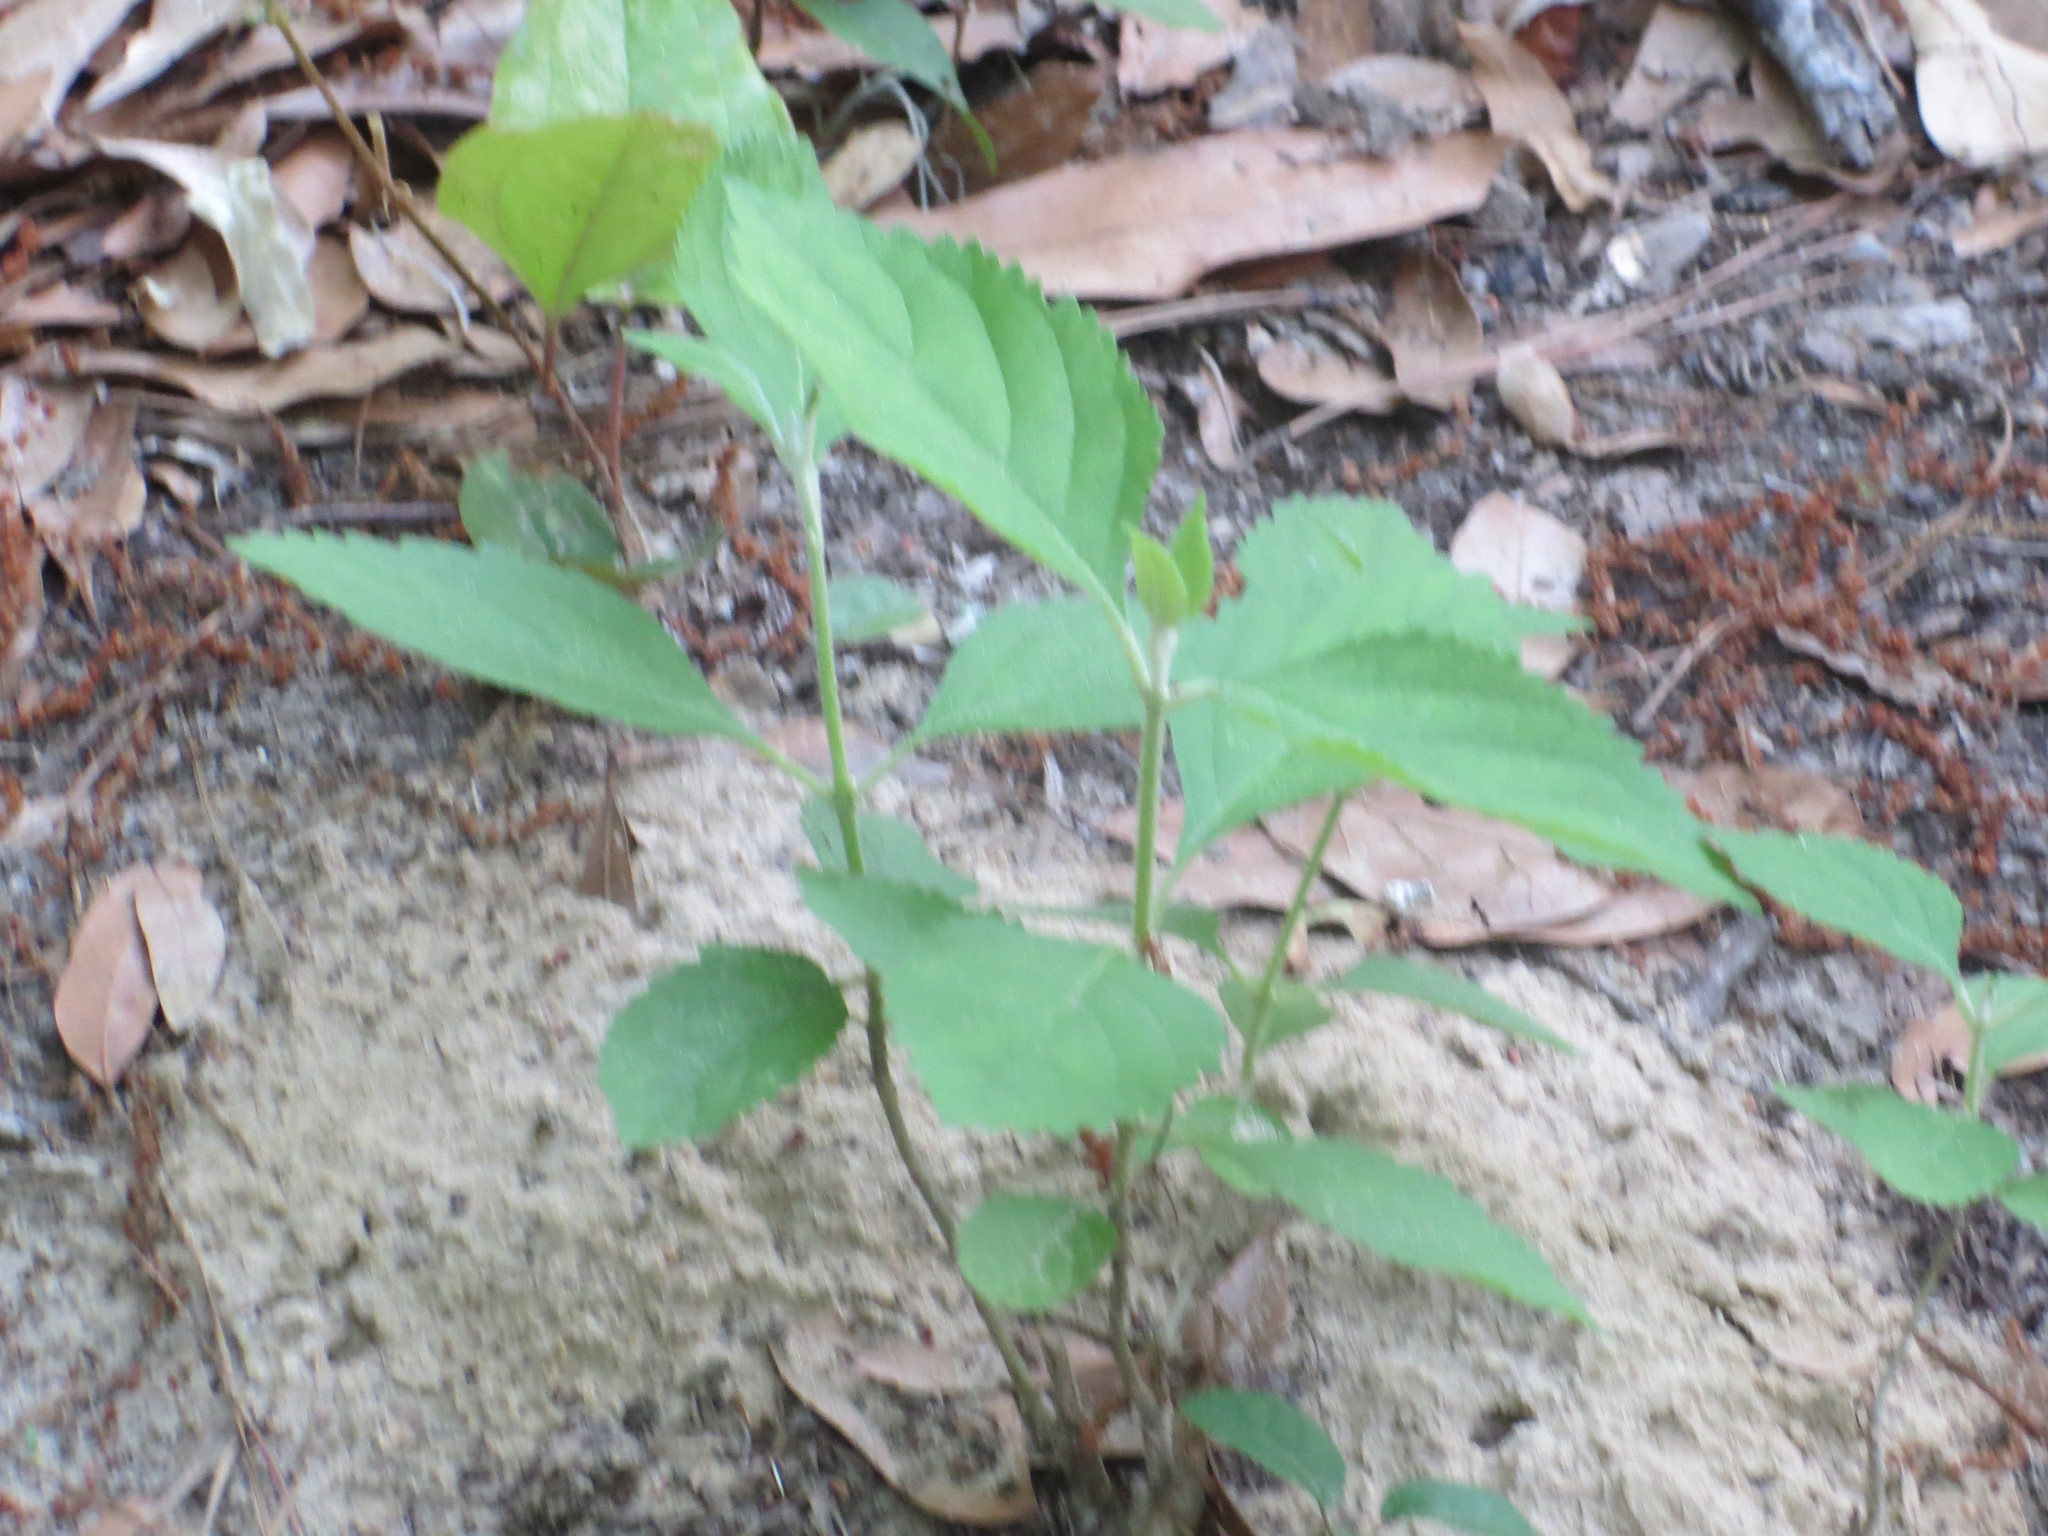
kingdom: Plantae
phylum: Tracheophyta
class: Magnoliopsida
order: Lamiales
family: Lamiaceae
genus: Callicarpa
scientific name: Callicarpa americana
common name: American beautyberry
